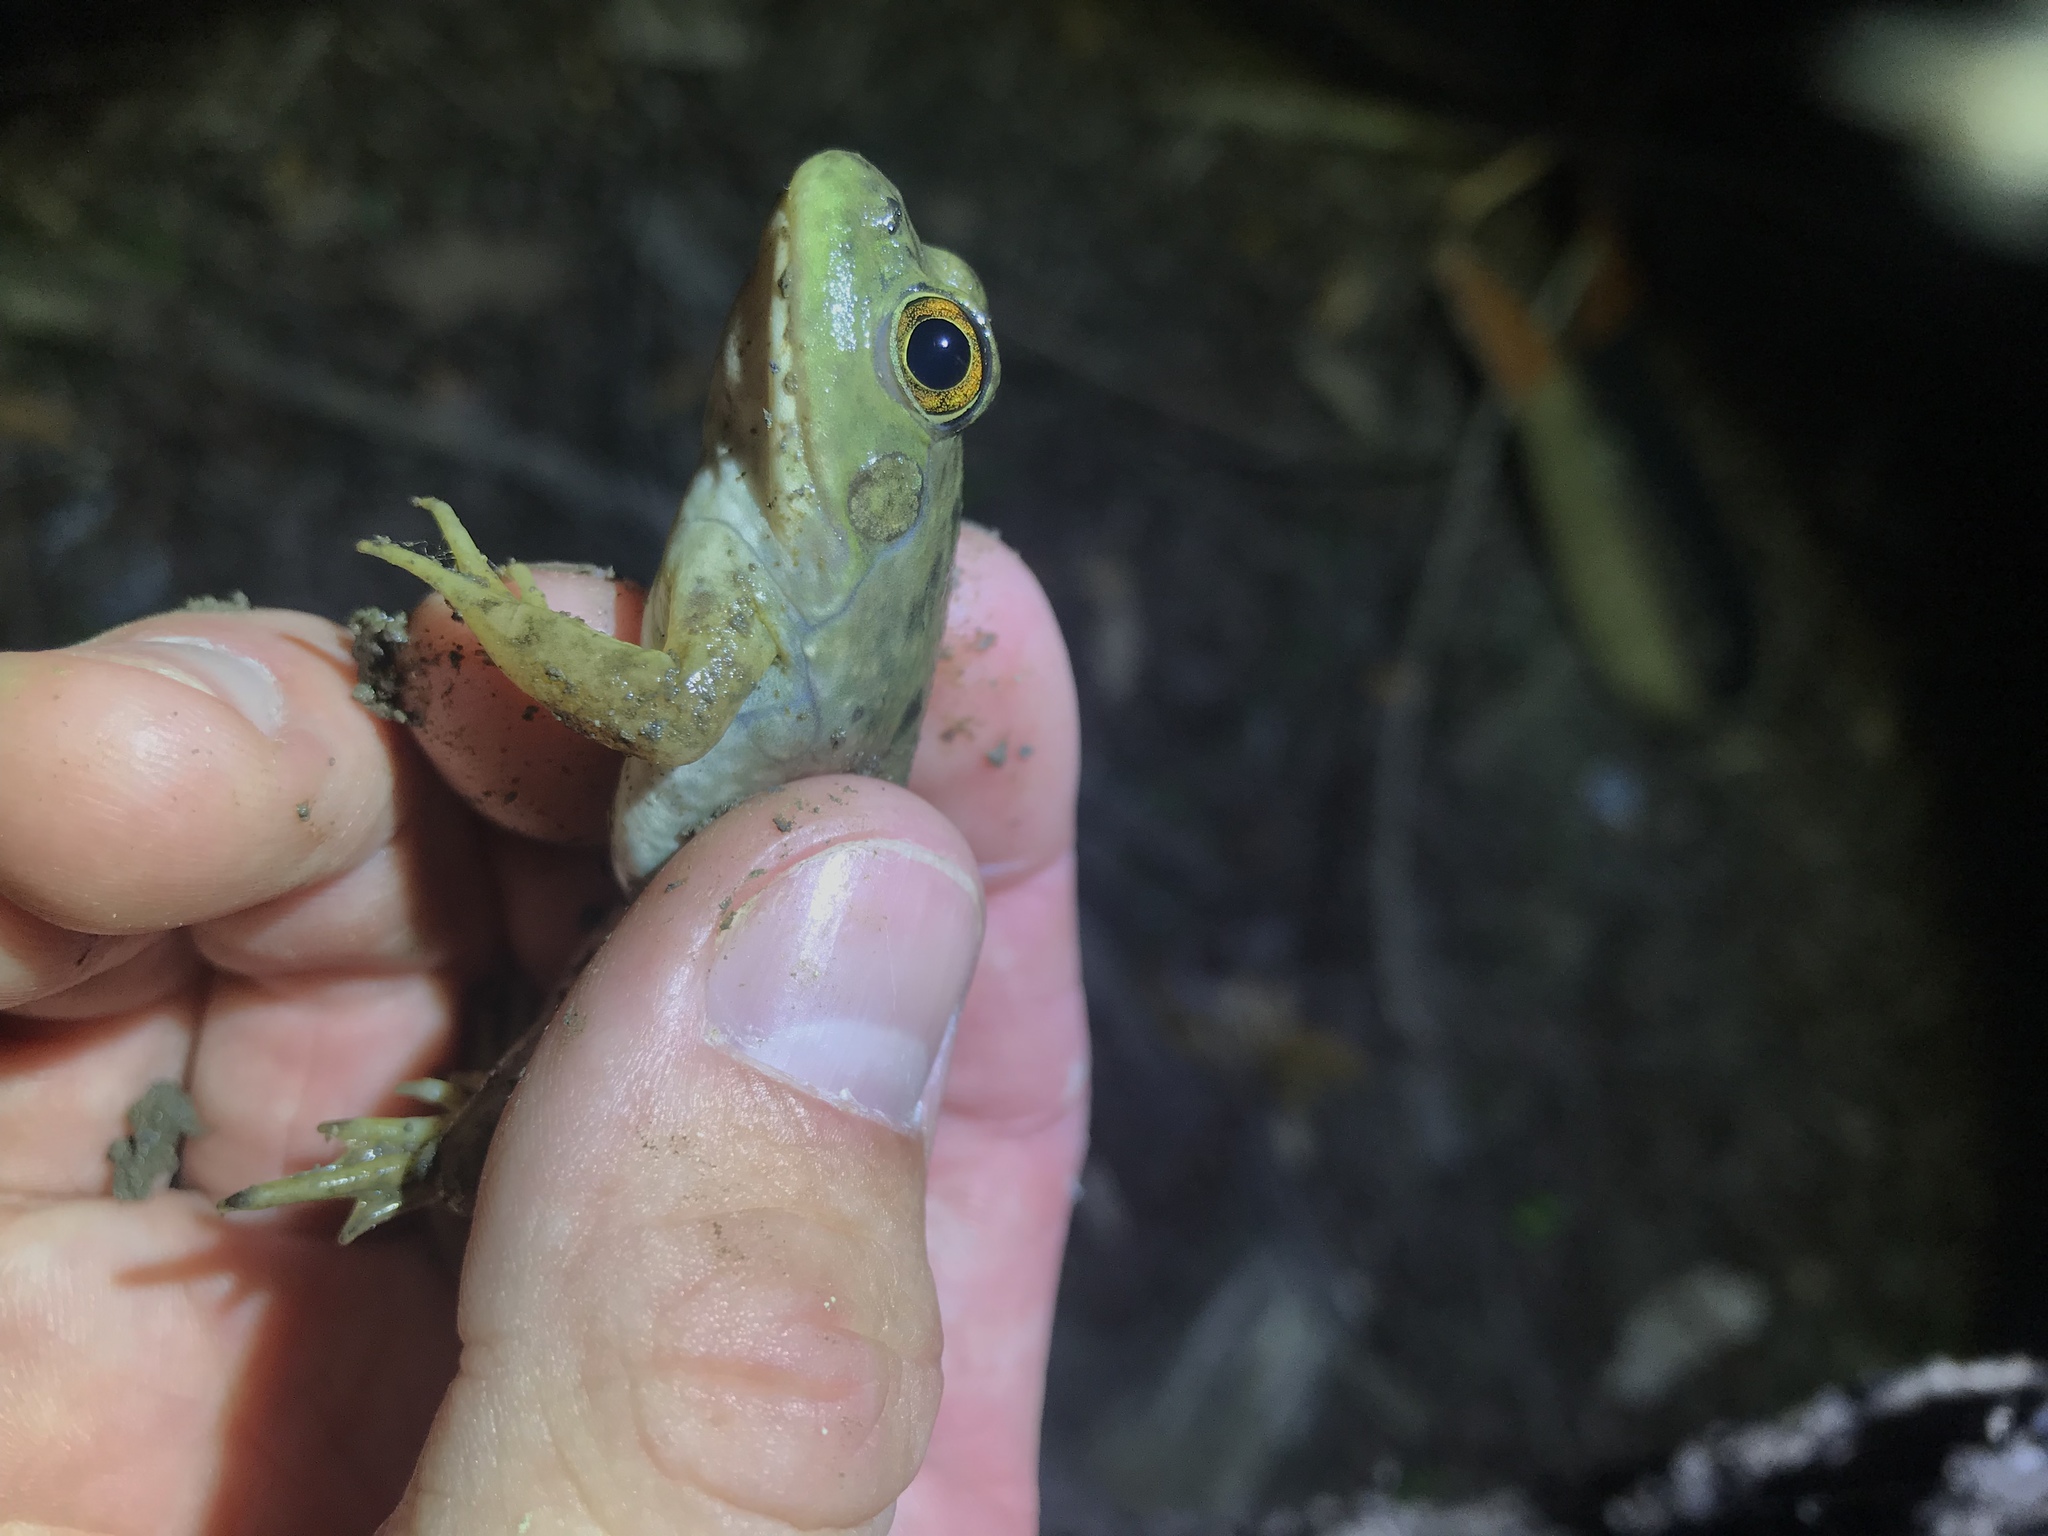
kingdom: Animalia
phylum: Chordata
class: Amphibia
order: Anura
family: Ranidae
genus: Lithobates
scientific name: Lithobates catesbeianus
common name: American bullfrog
